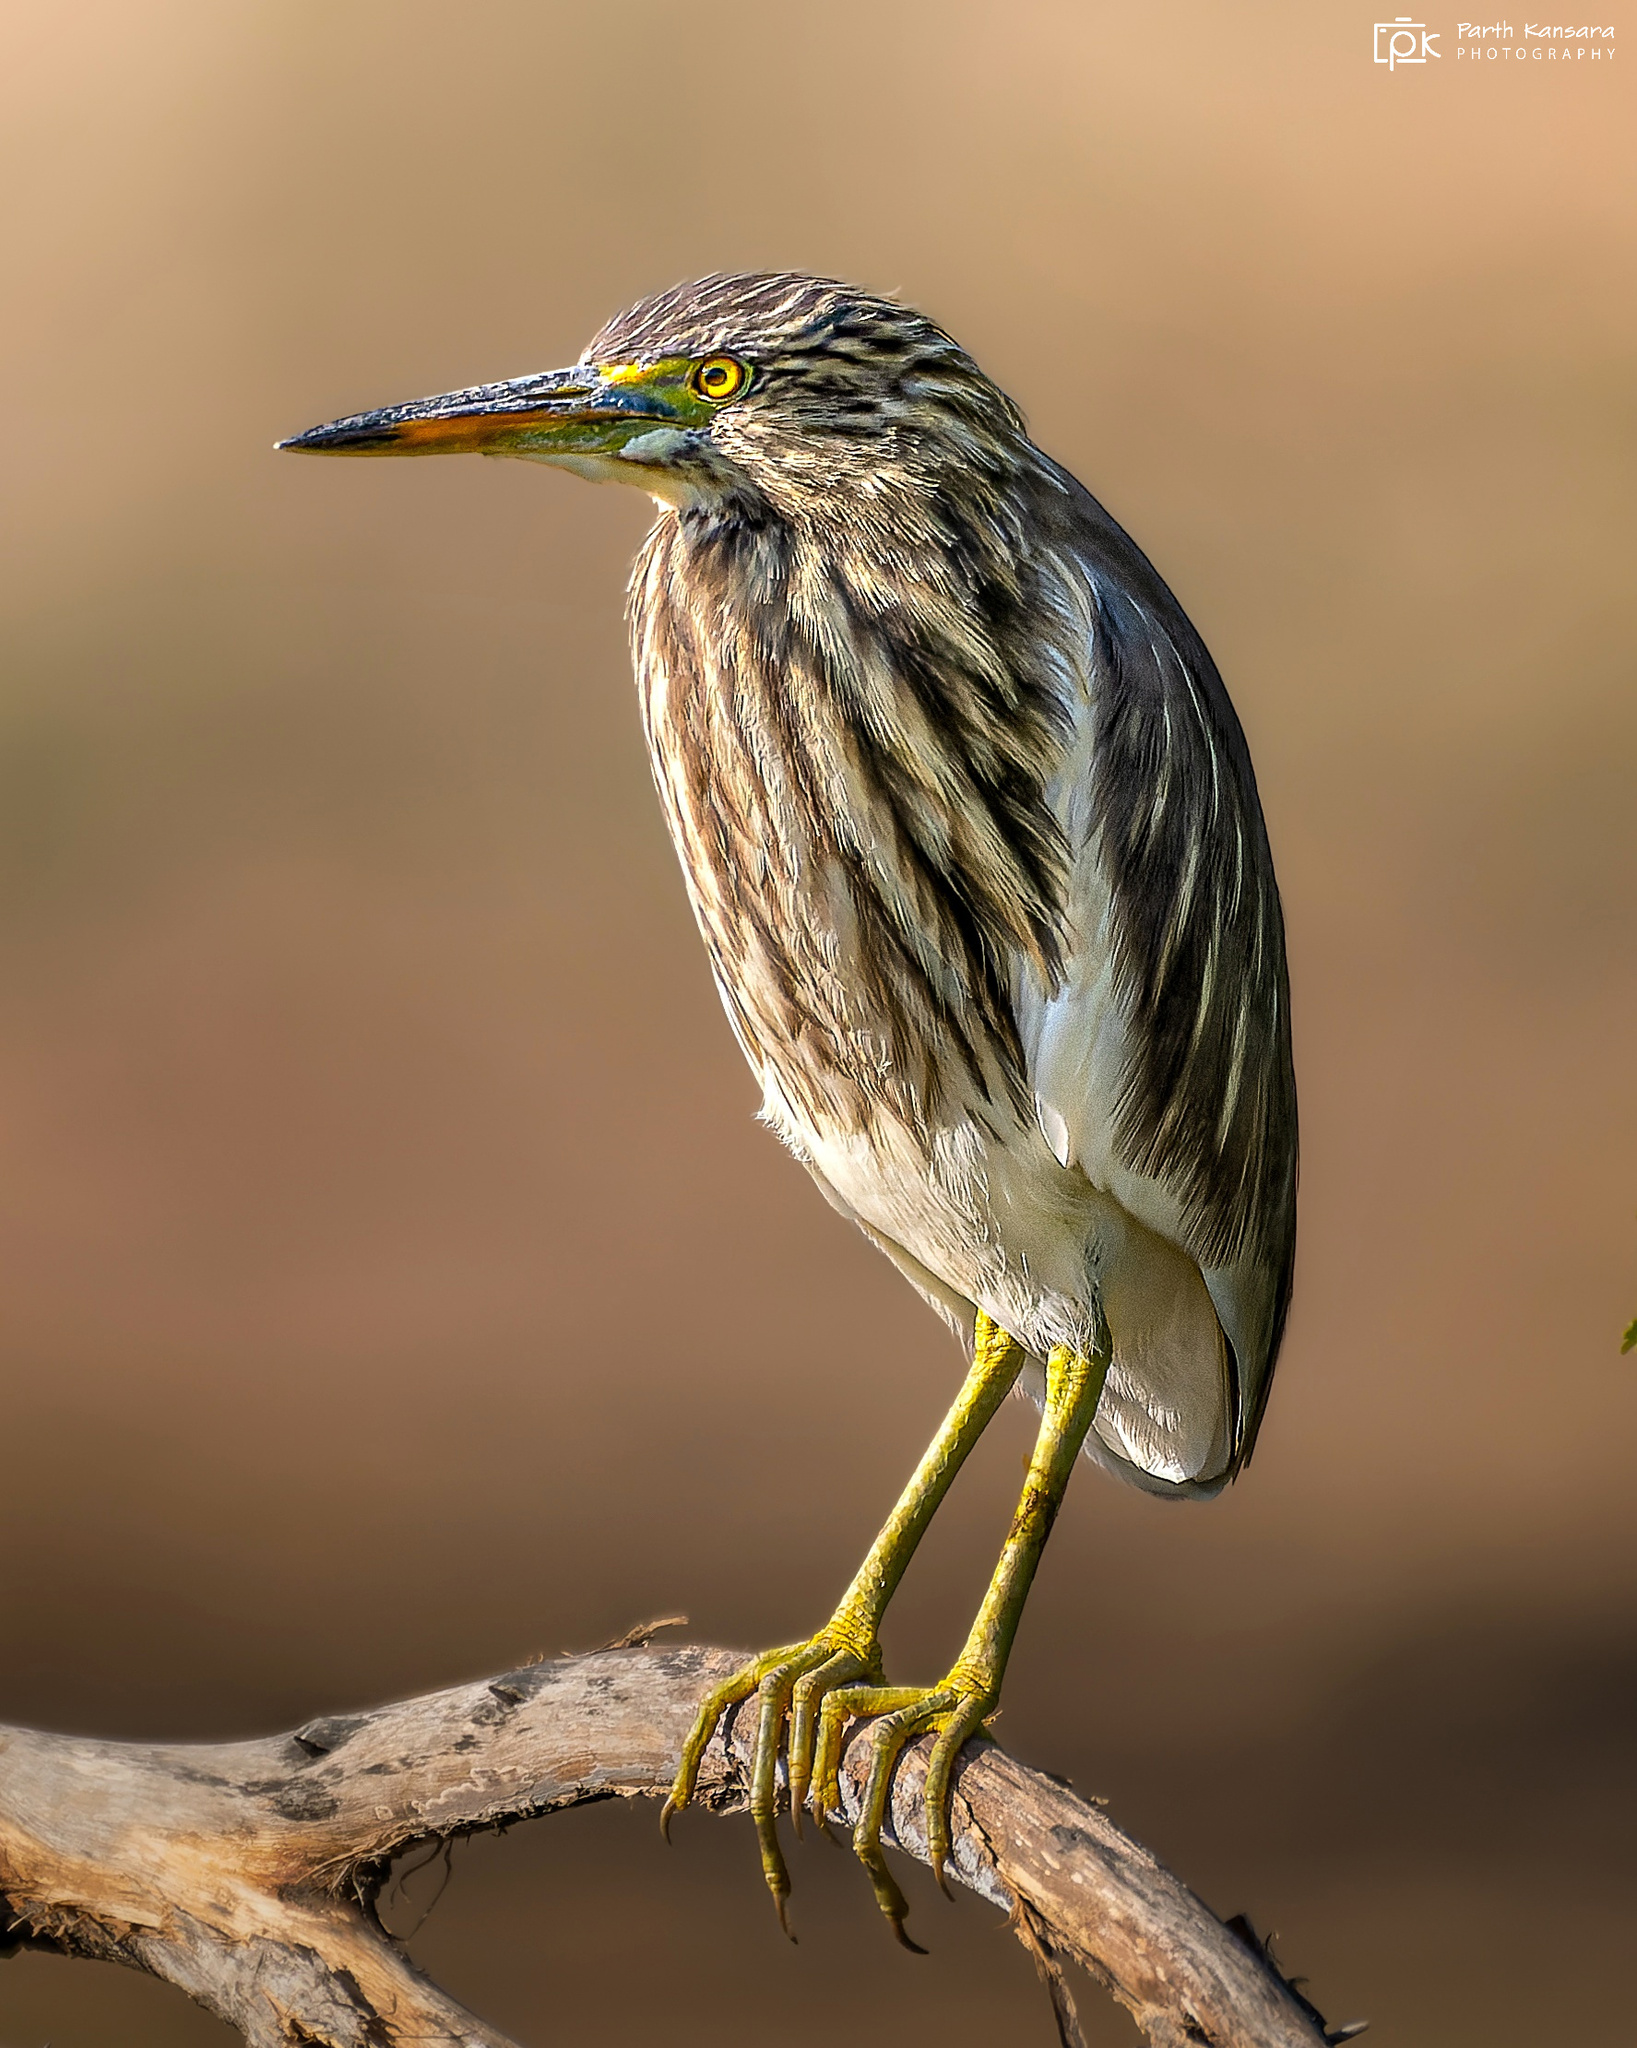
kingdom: Animalia
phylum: Chordata
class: Aves
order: Pelecaniformes
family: Ardeidae
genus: Ardeola
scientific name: Ardeola grayii
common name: Indian pond heron
